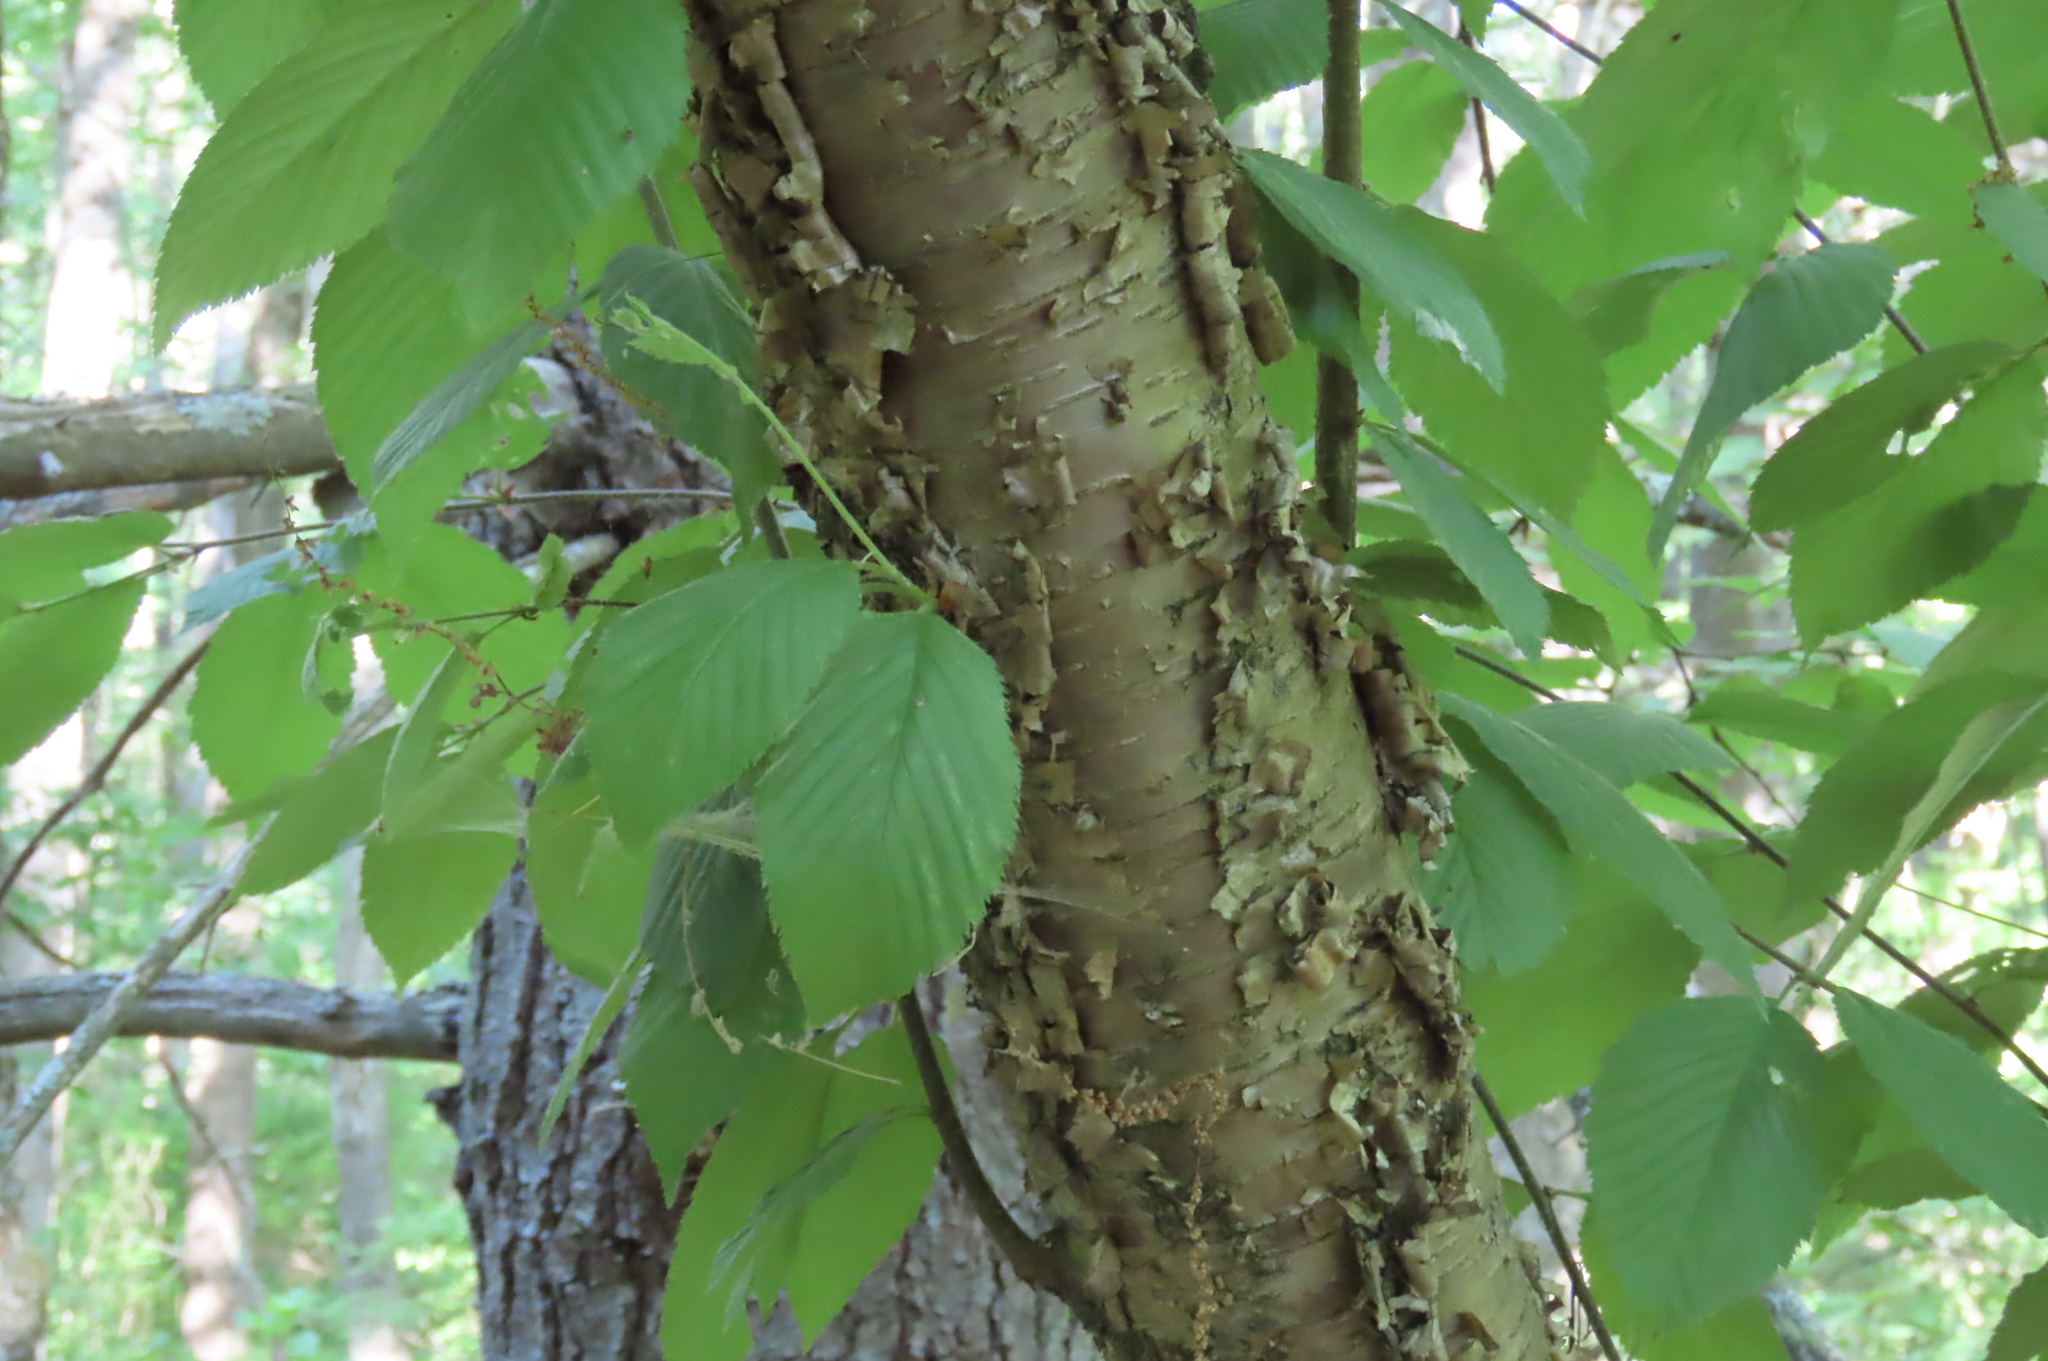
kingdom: Plantae
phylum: Tracheophyta
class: Magnoliopsida
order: Fagales
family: Betulaceae
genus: Betula
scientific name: Betula alleghaniensis
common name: Yellow birch
